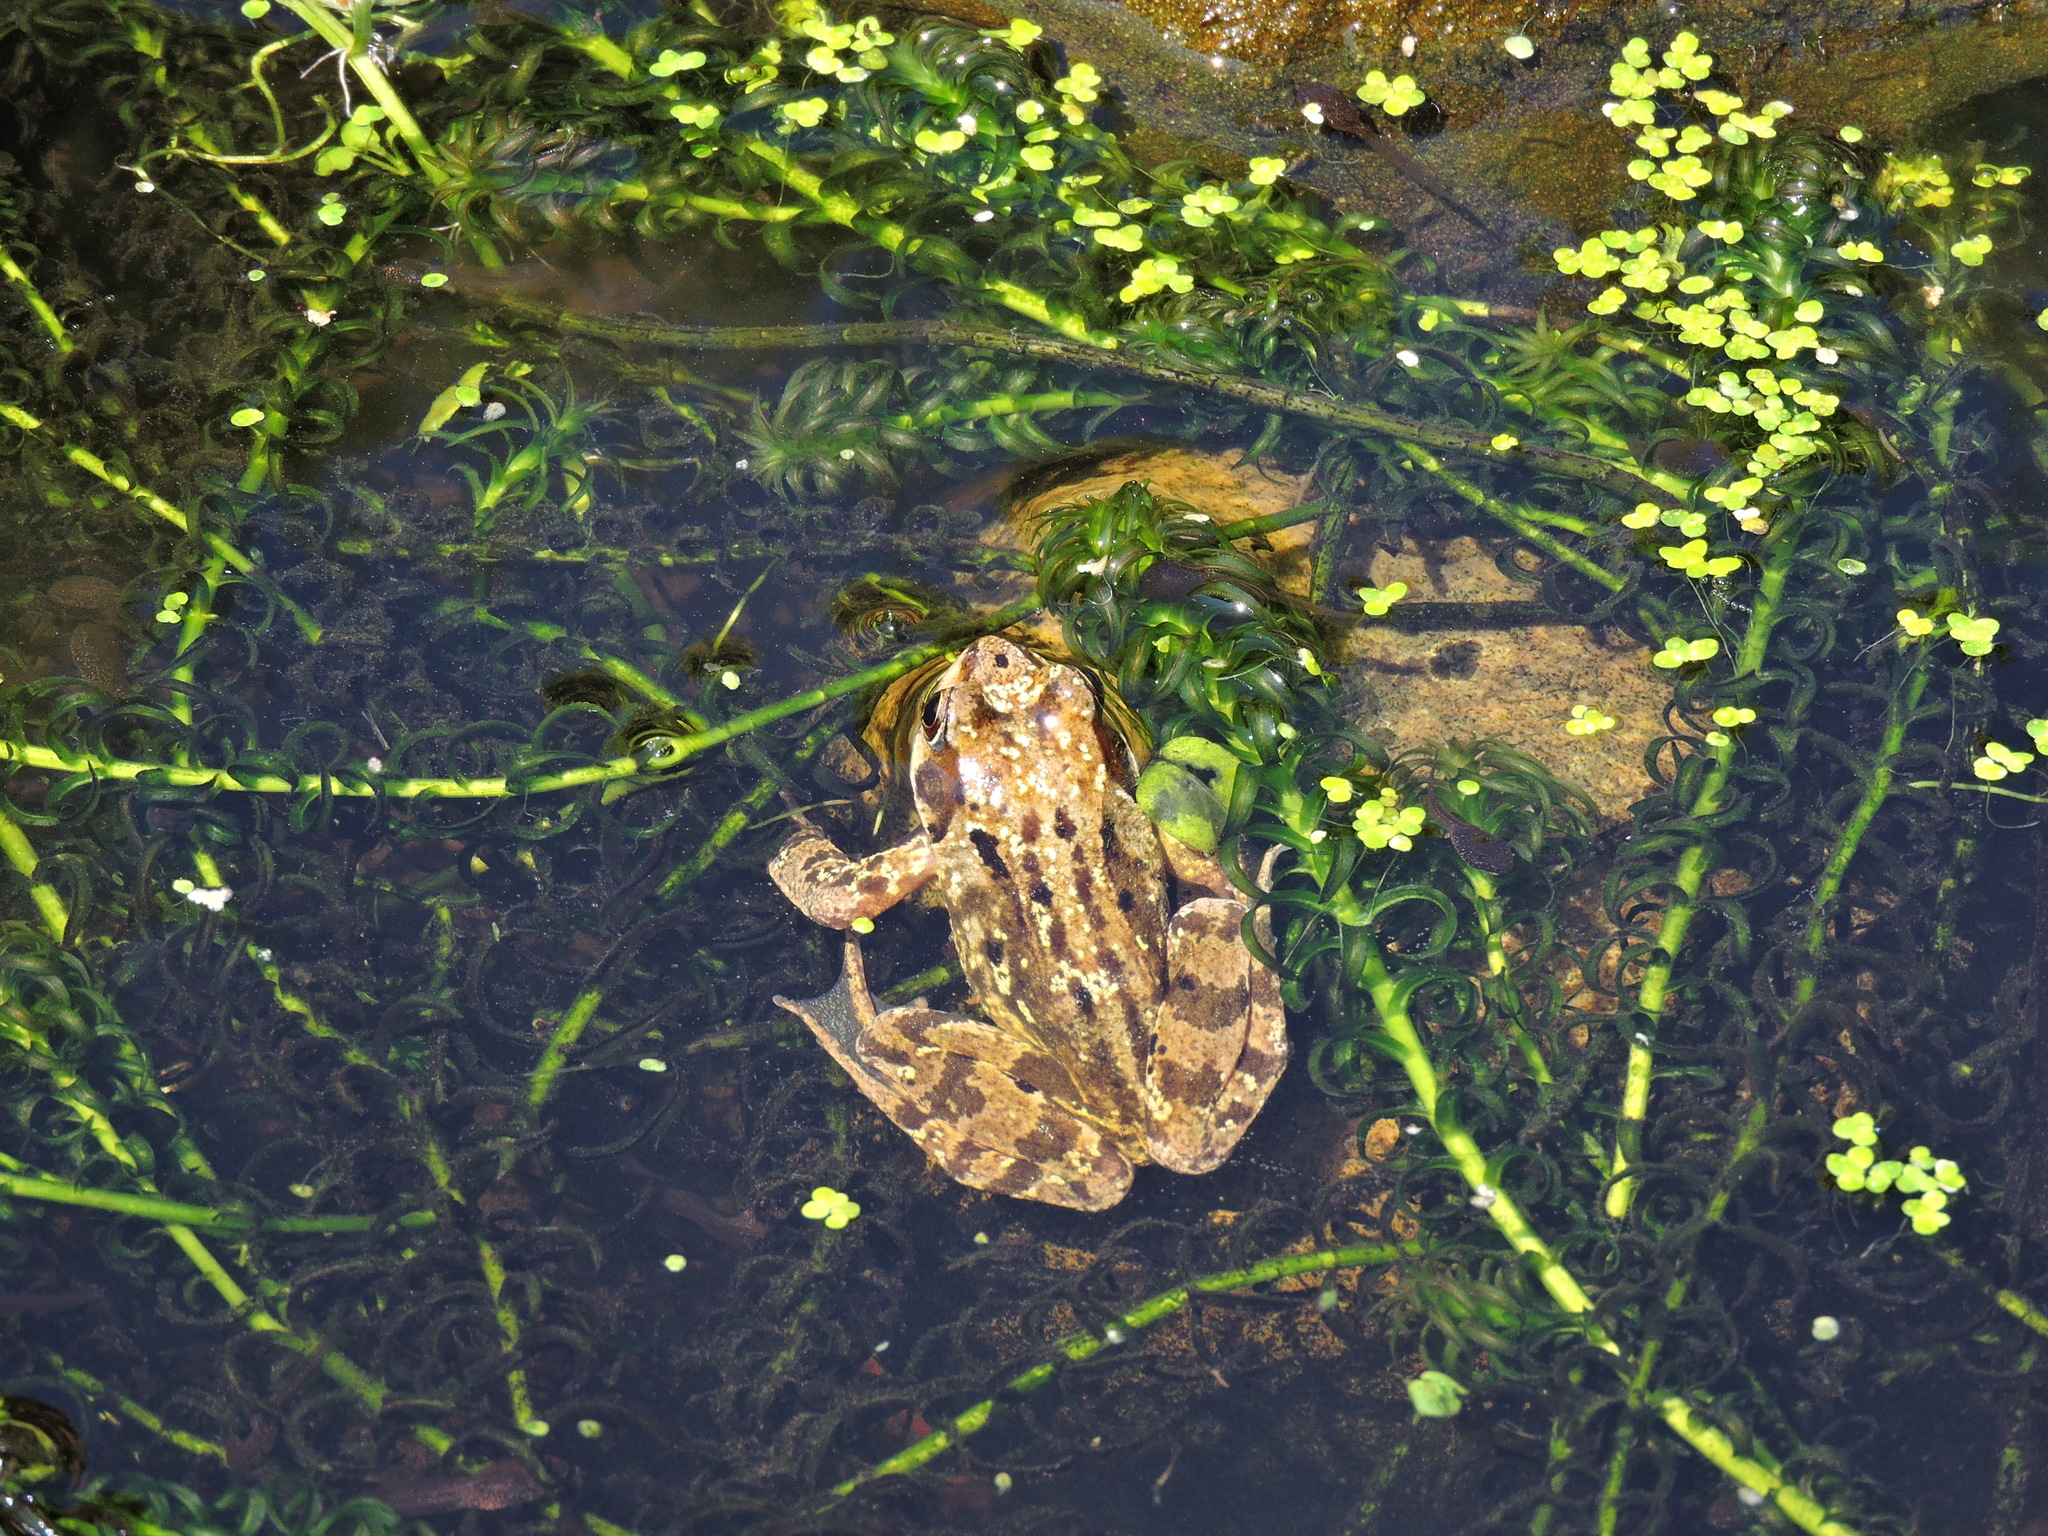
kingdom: Animalia
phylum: Chordata
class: Amphibia
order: Anura
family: Ranidae
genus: Rana
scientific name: Rana temporaria
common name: Common frog
